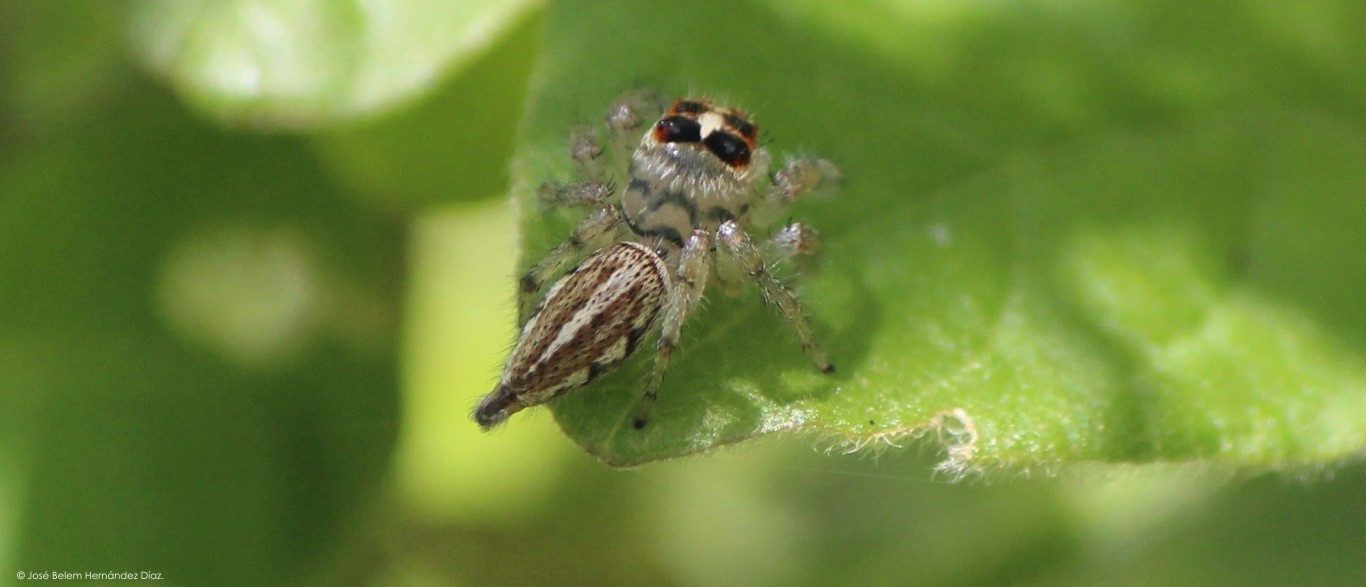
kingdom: Animalia
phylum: Arthropoda
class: Arachnida
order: Araneae
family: Salticidae
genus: Colonus
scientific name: Colonus hesperus
